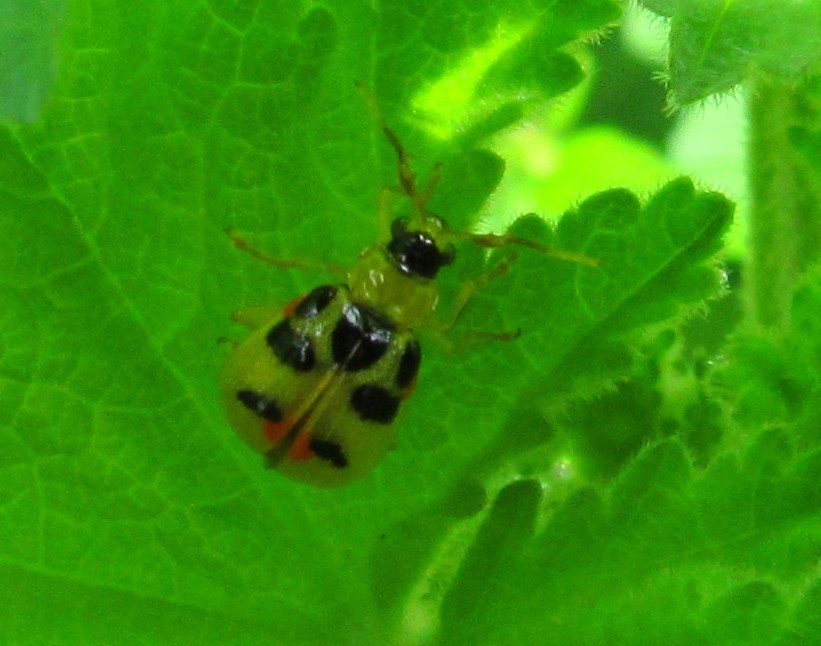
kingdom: Animalia
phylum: Arthropoda
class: Insecta
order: Coleoptera
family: Chrysomelidae
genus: Cerotoma
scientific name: Cerotoma ruficornis
